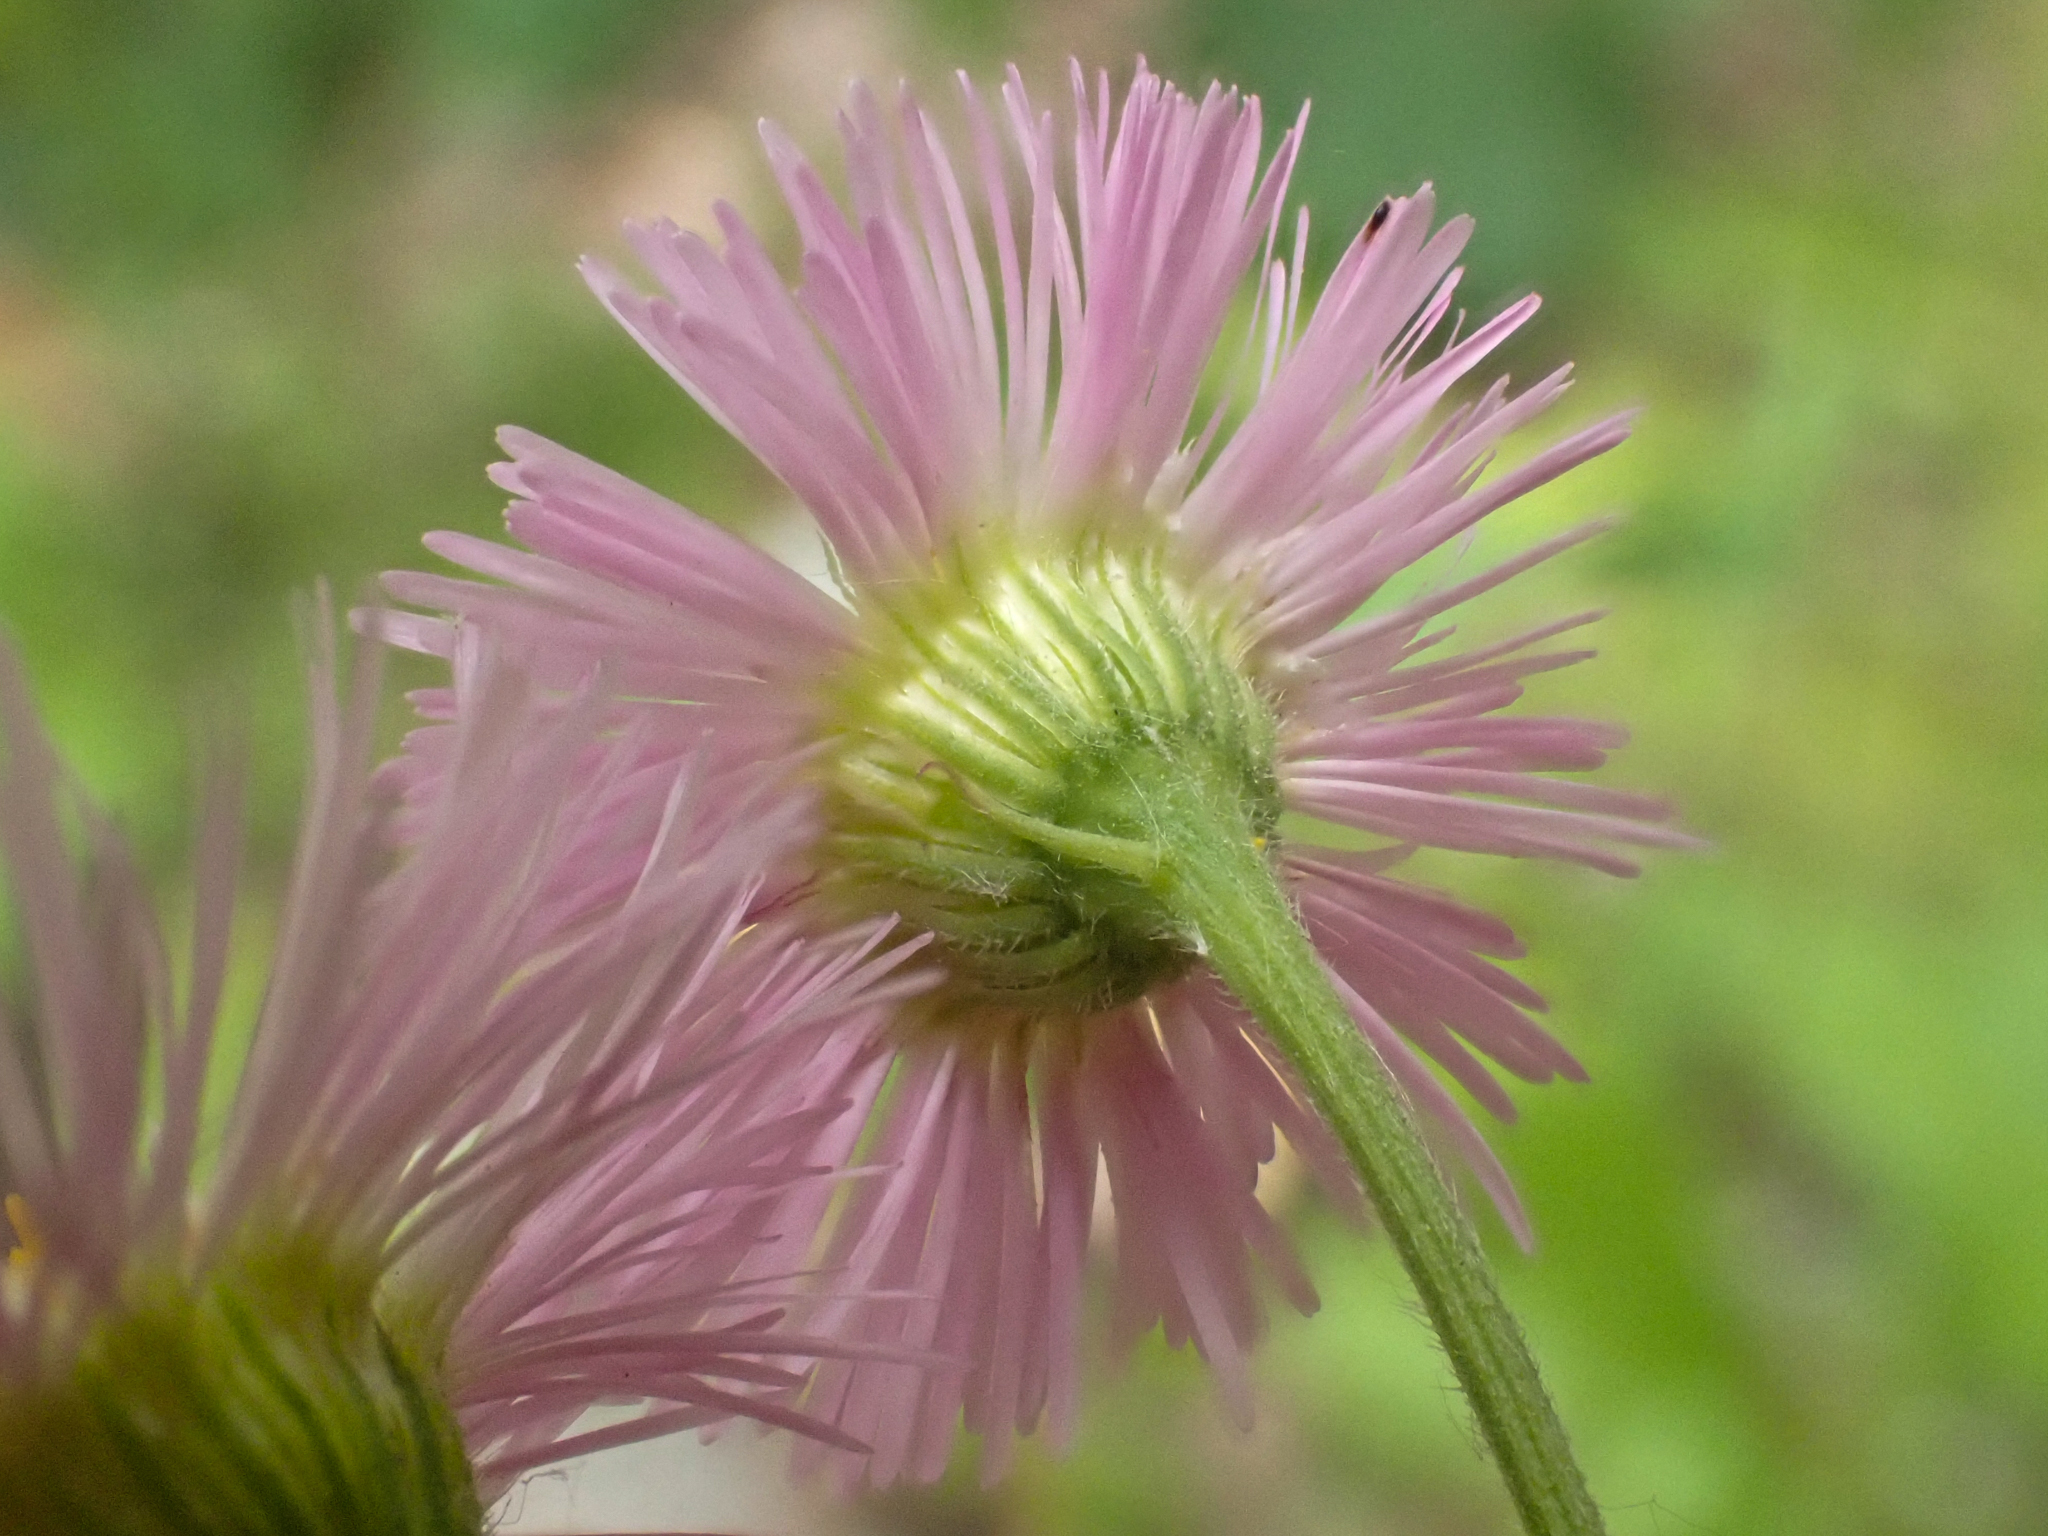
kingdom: Plantae
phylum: Tracheophyta
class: Magnoliopsida
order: Asterales
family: Asteraceae
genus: Erigeron
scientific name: Erigeron philadelphicus
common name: Robin's-plantain
